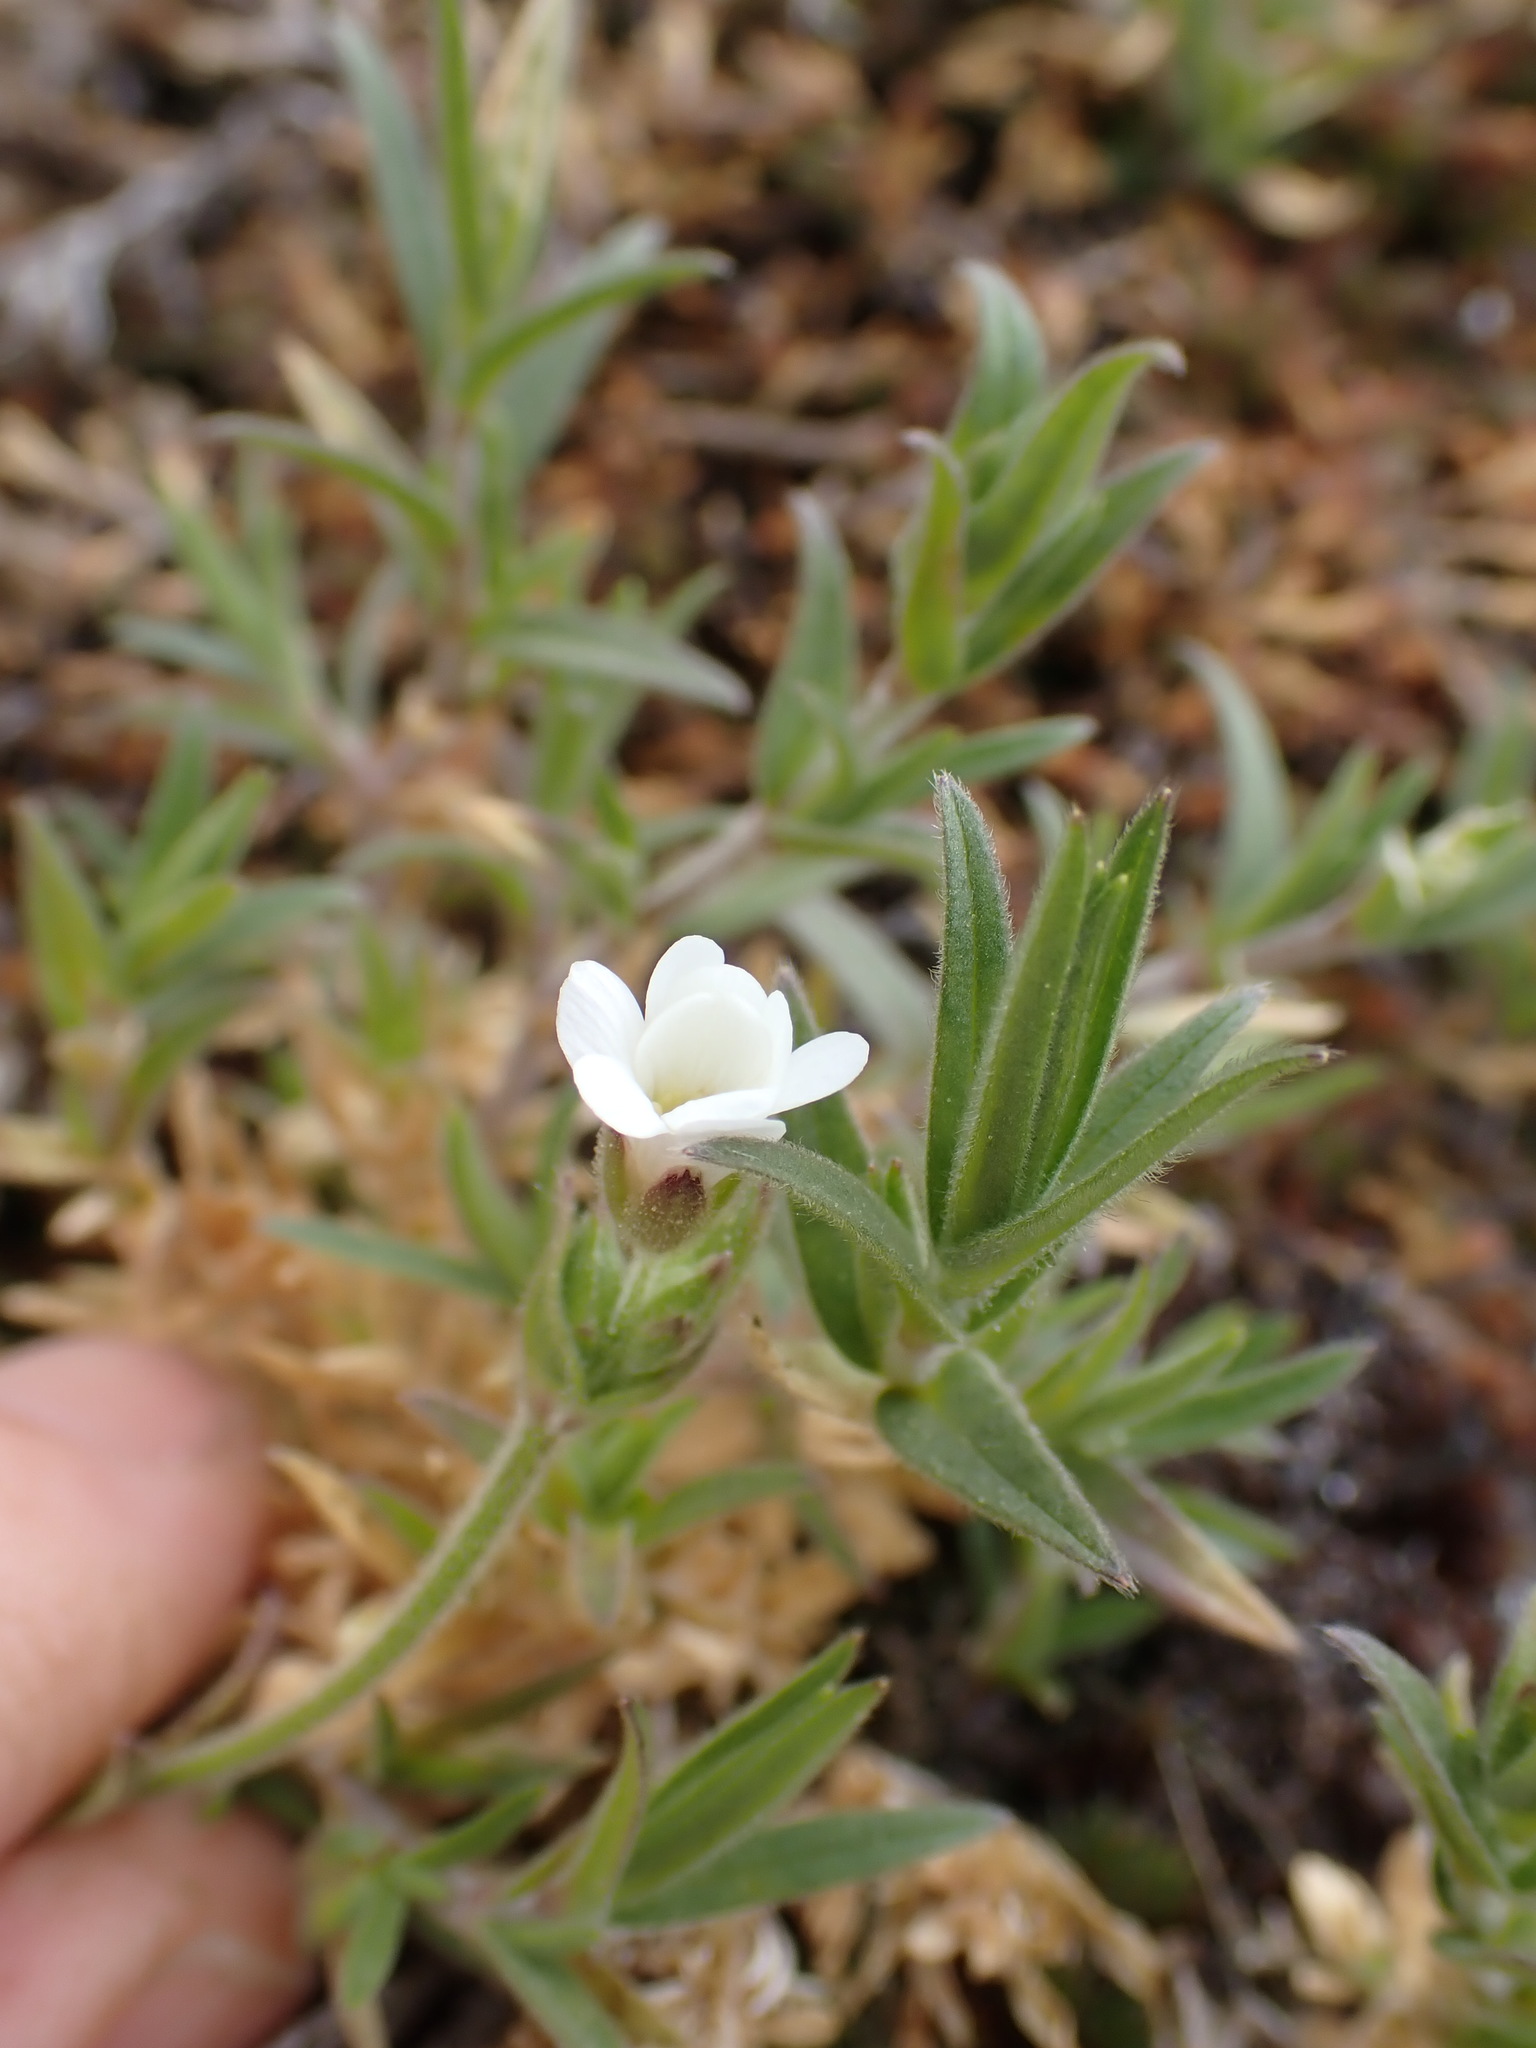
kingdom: Plantae
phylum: Tracheophyta
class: Magnoliopsida
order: Caryophyllales
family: Caryophyllaceae
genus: Cerastium
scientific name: Cerastium arvense
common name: Field mouse-ear
